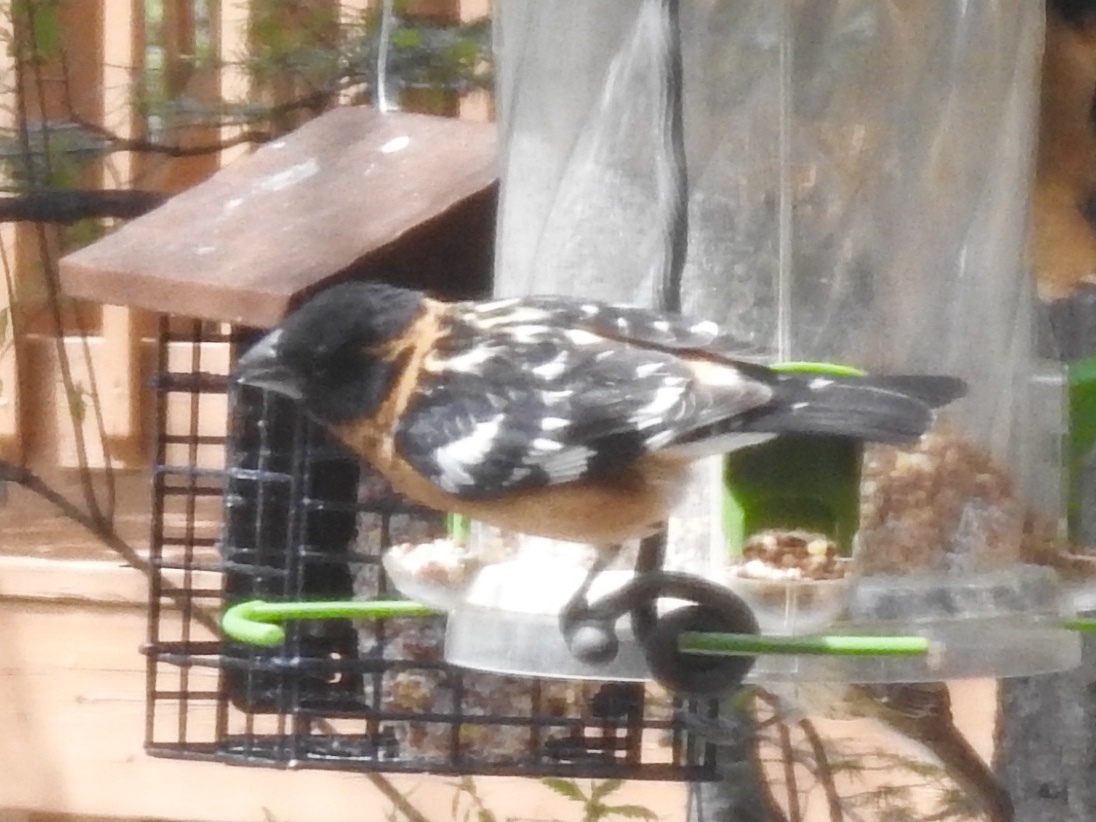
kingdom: Animalia
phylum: Chordata
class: Aves
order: Passeriformes
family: Cardinalidae
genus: Pheucticus
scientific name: Pheucticus melanocephalus
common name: Black-headed grosbeak
